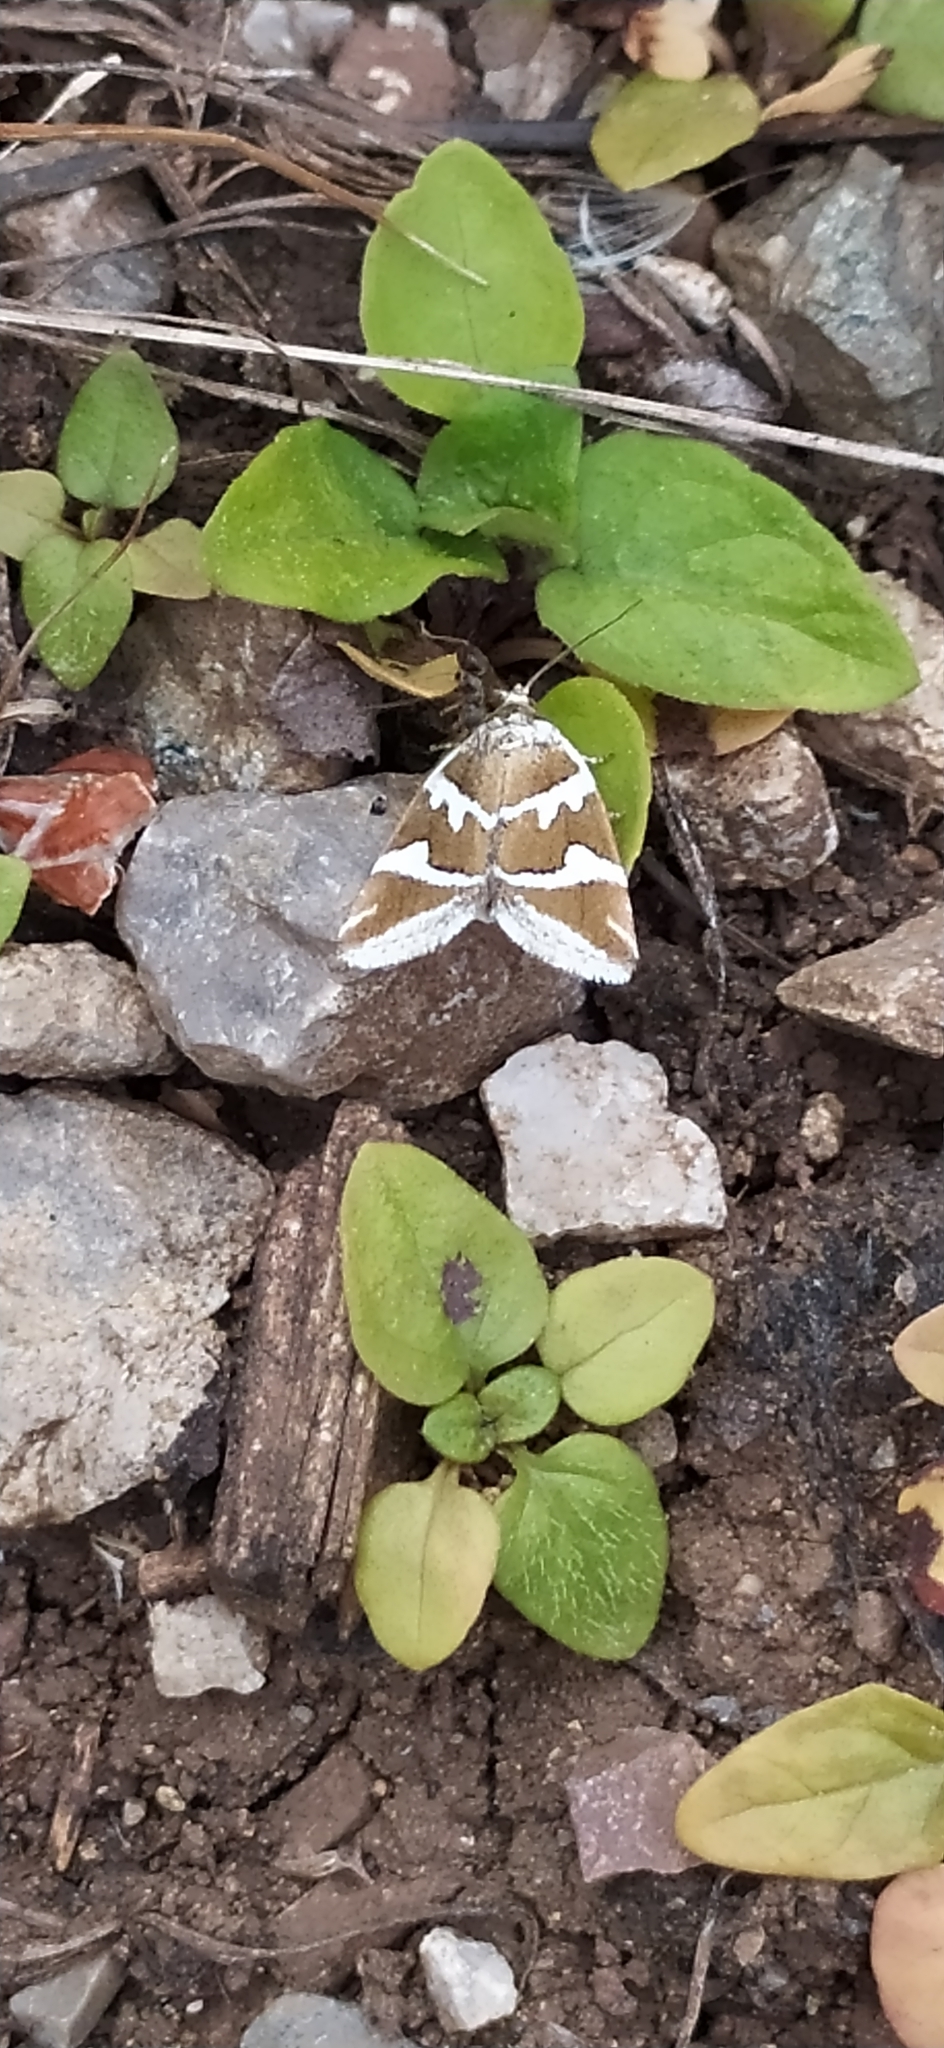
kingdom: Animalia
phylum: Arthropoda
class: Insecta
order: Lepidoptera
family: Noctuidae
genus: Deltote
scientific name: Deltote bankiana
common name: Silver barred
